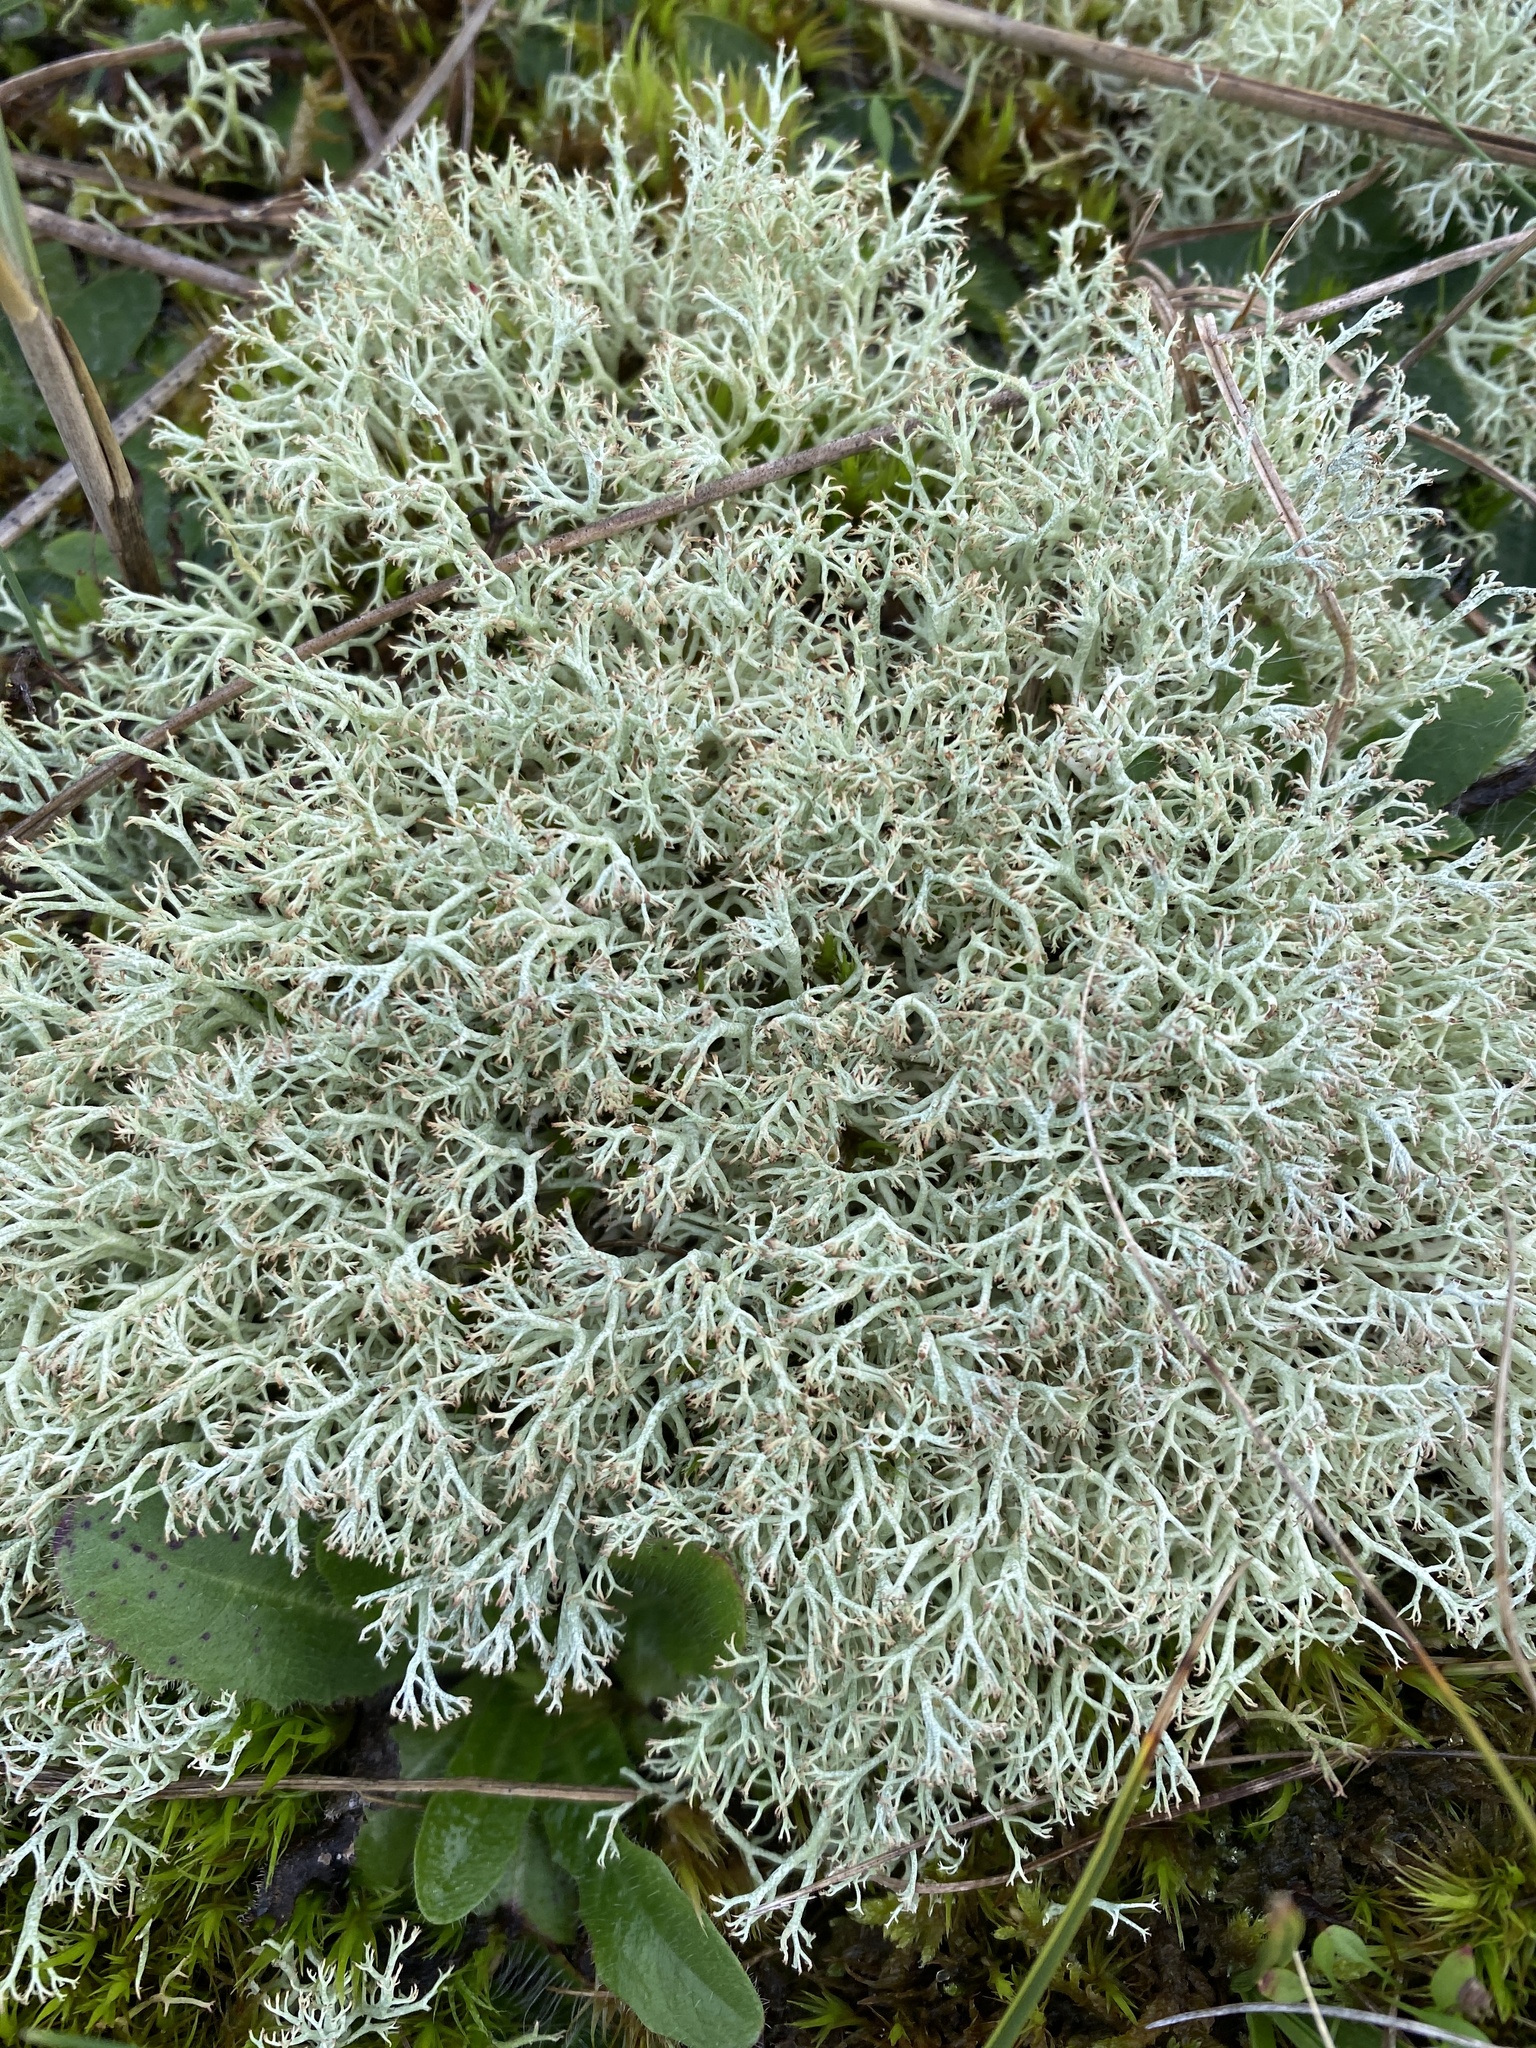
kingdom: Fungi
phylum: Ascomycota
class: Lecanoromycetes
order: Lecanorales
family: Cladoniaceae
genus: Cladonia
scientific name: Cladonia ciliata
